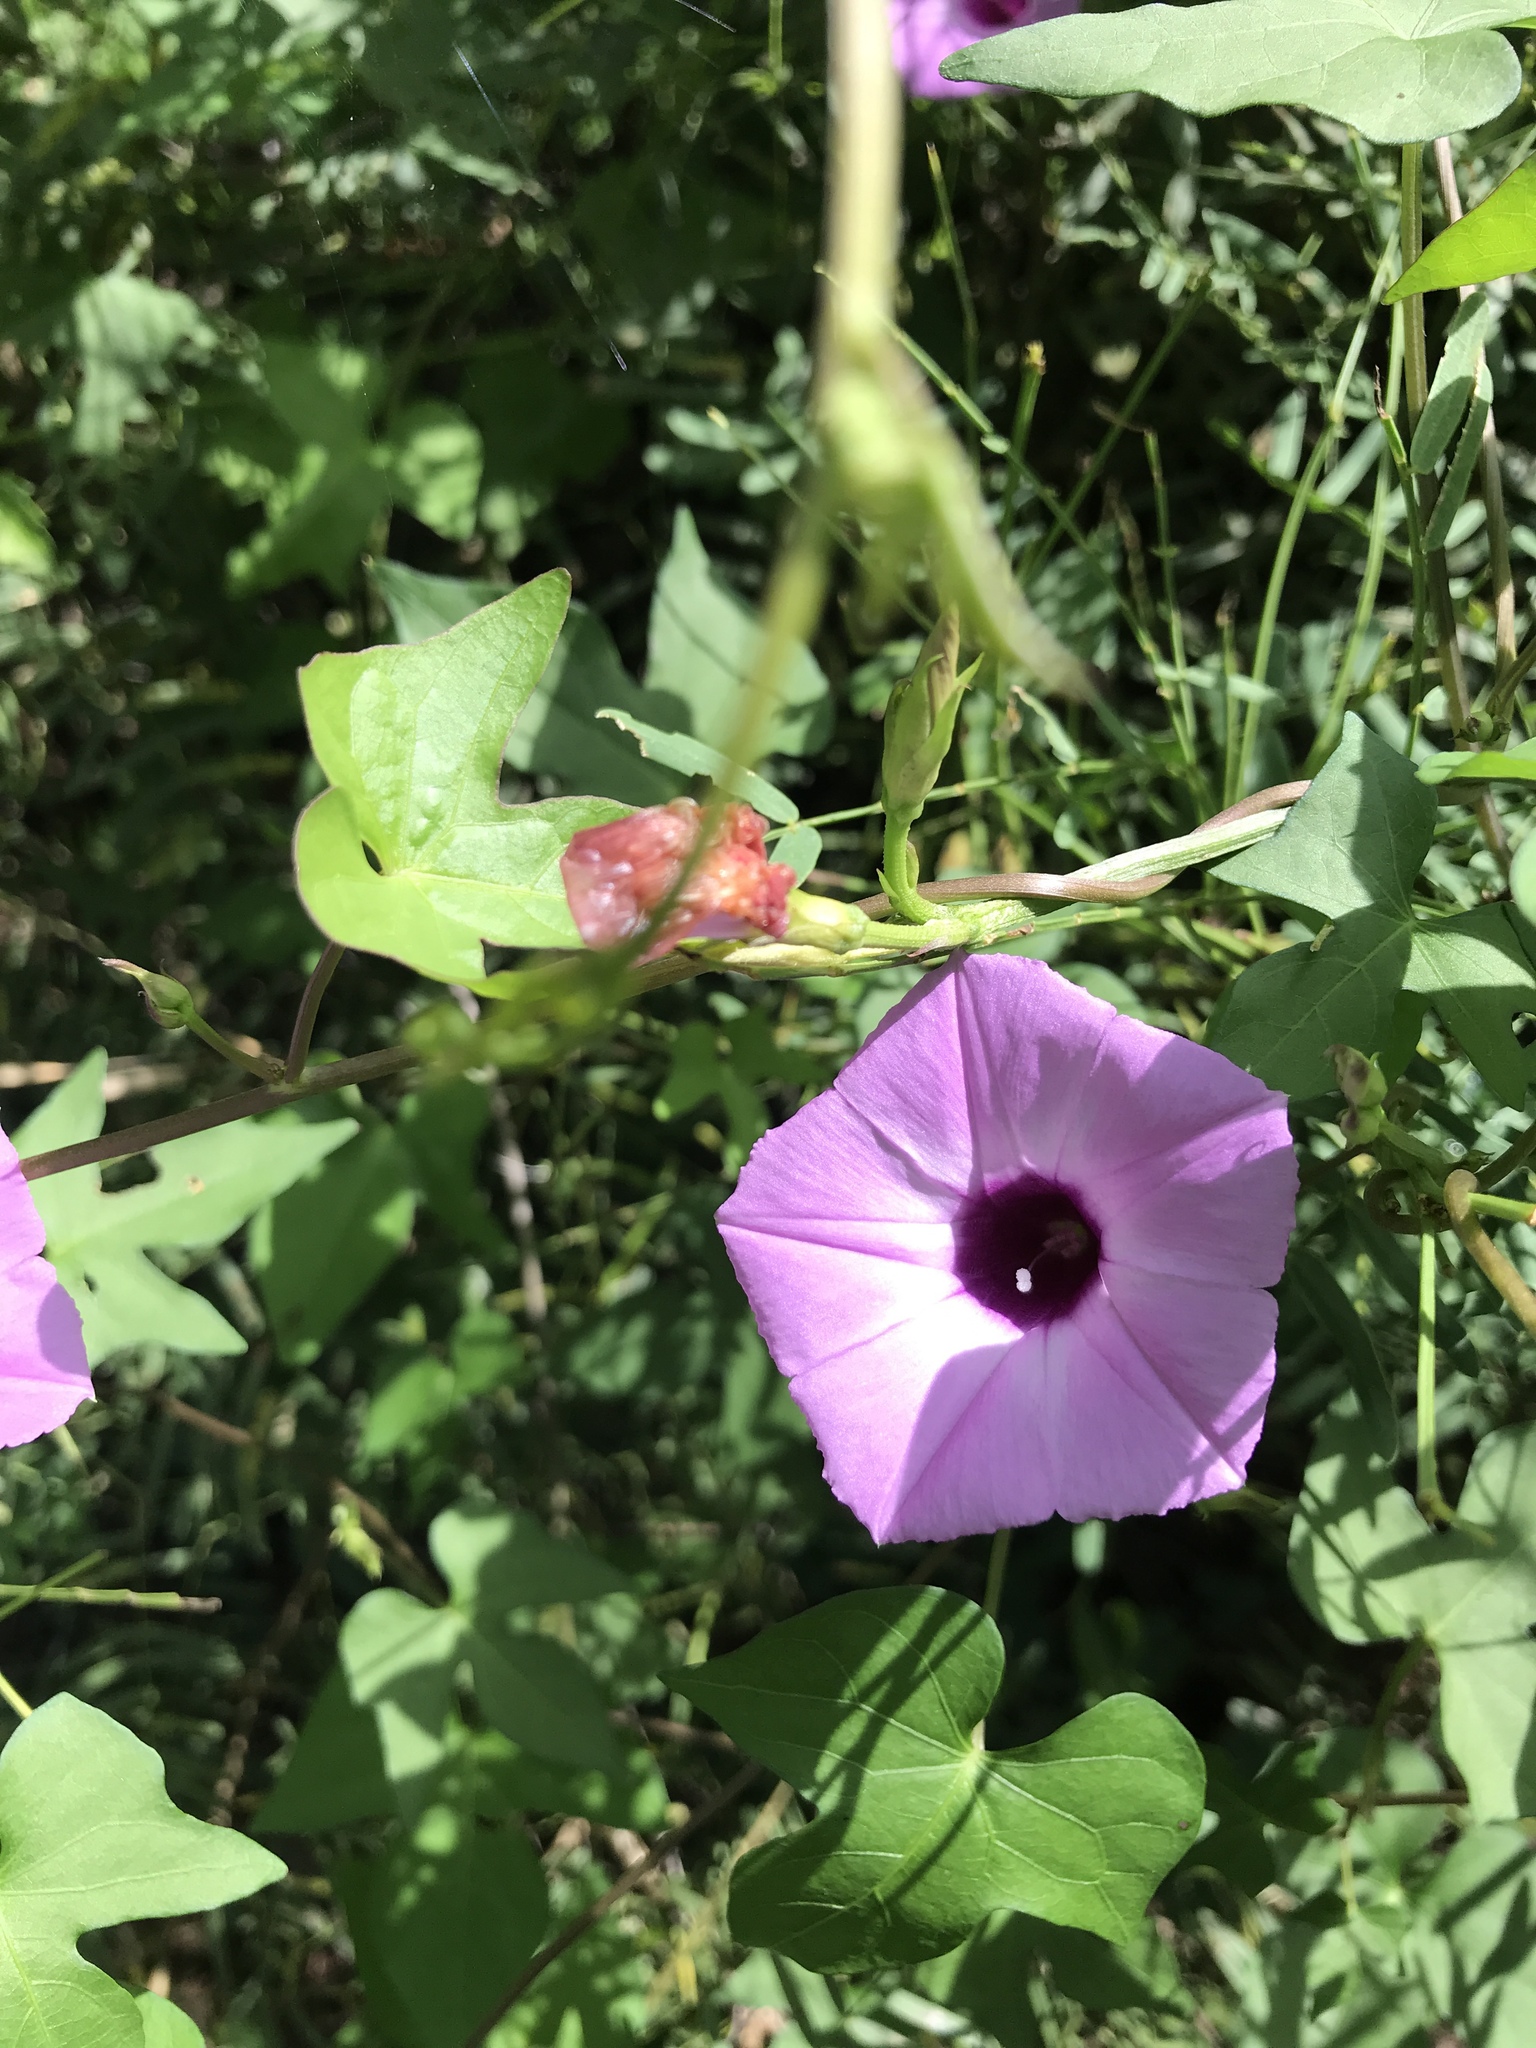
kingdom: Plantae
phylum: Tracheophyta
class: Magnoliopsida
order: Solanales
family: Convolvulaceae
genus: Ipomoea
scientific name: Ipomoea cordatotriloba
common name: Cotton morning glory
